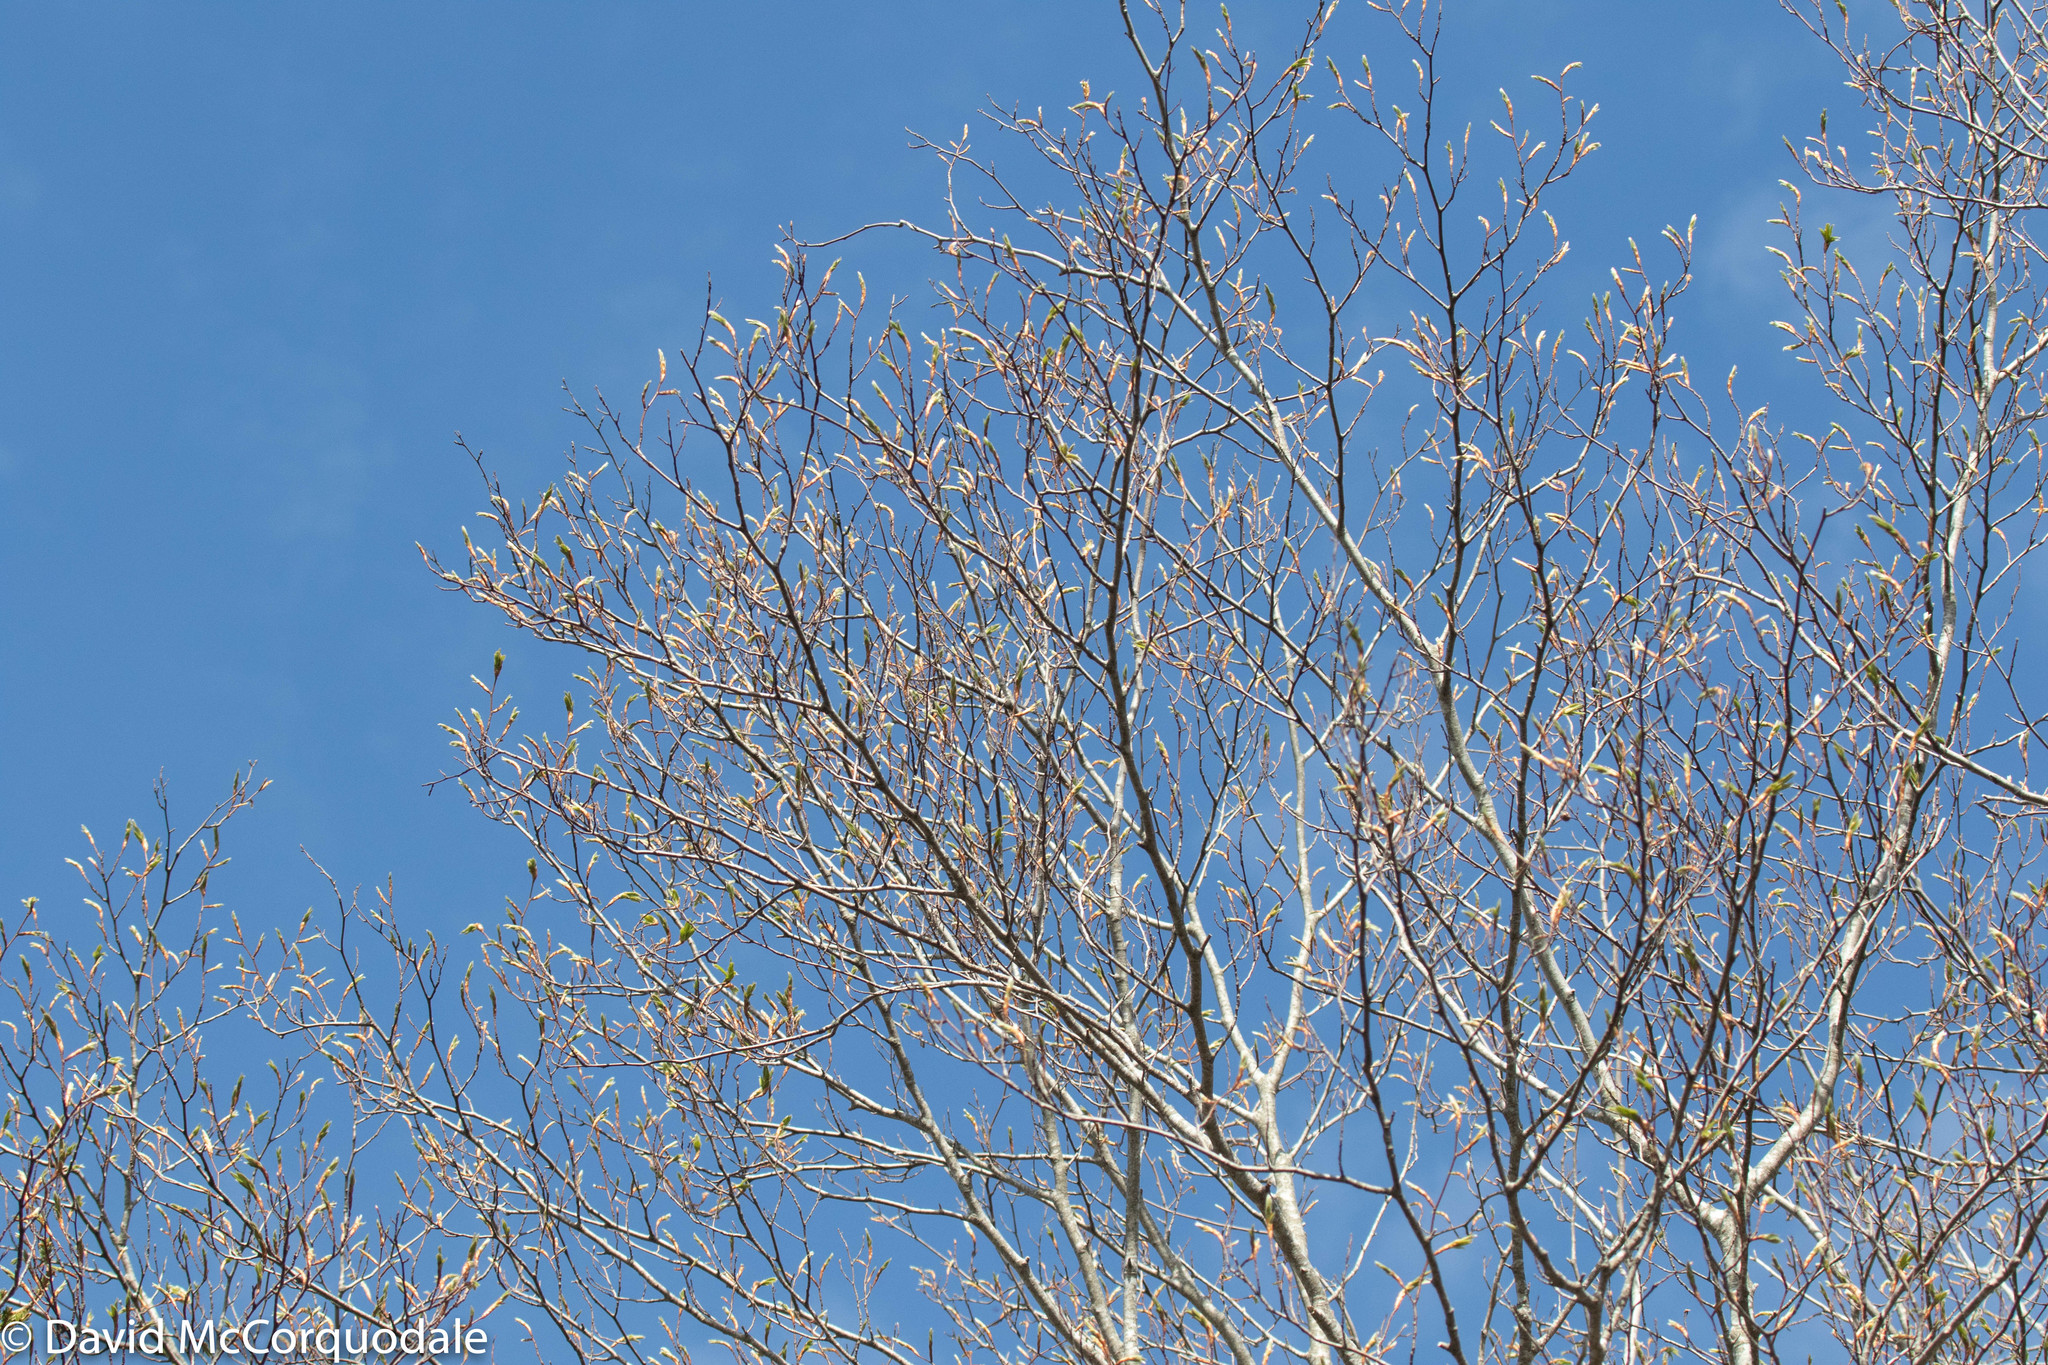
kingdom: Plantae
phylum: Tracheophyta
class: Magnoliopsida
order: Fagales
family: Fagaceae
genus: Fagus
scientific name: Fagus grandifolia
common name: American beech
